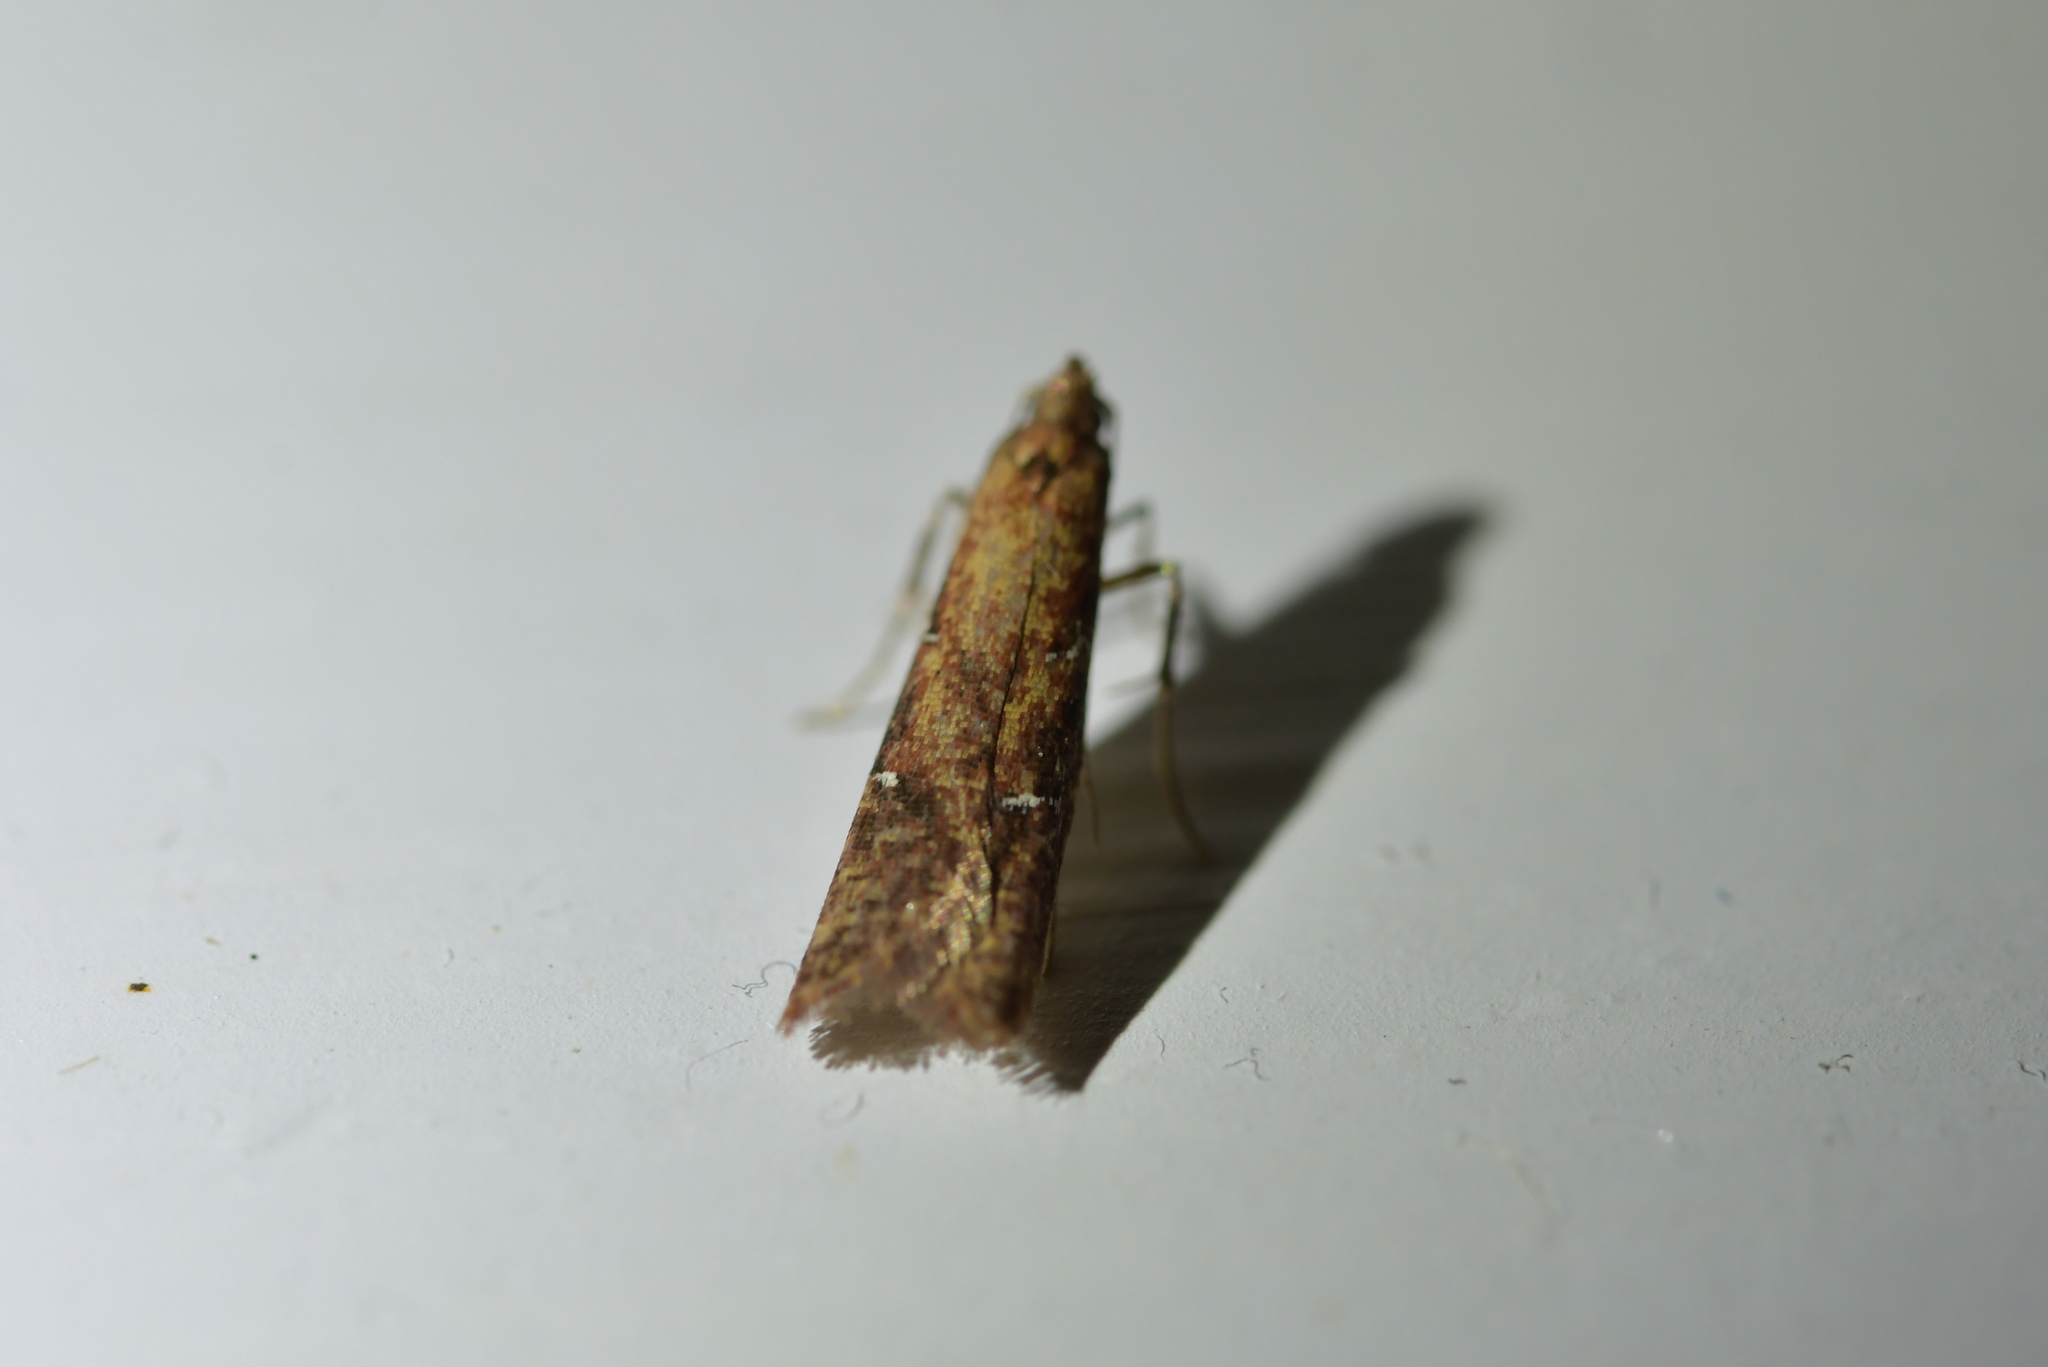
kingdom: Animalia
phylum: Arthropoda
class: Insecta
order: Lepidoptera
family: Plutellidae
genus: Cadmogenes
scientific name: Cadmogenes literata
